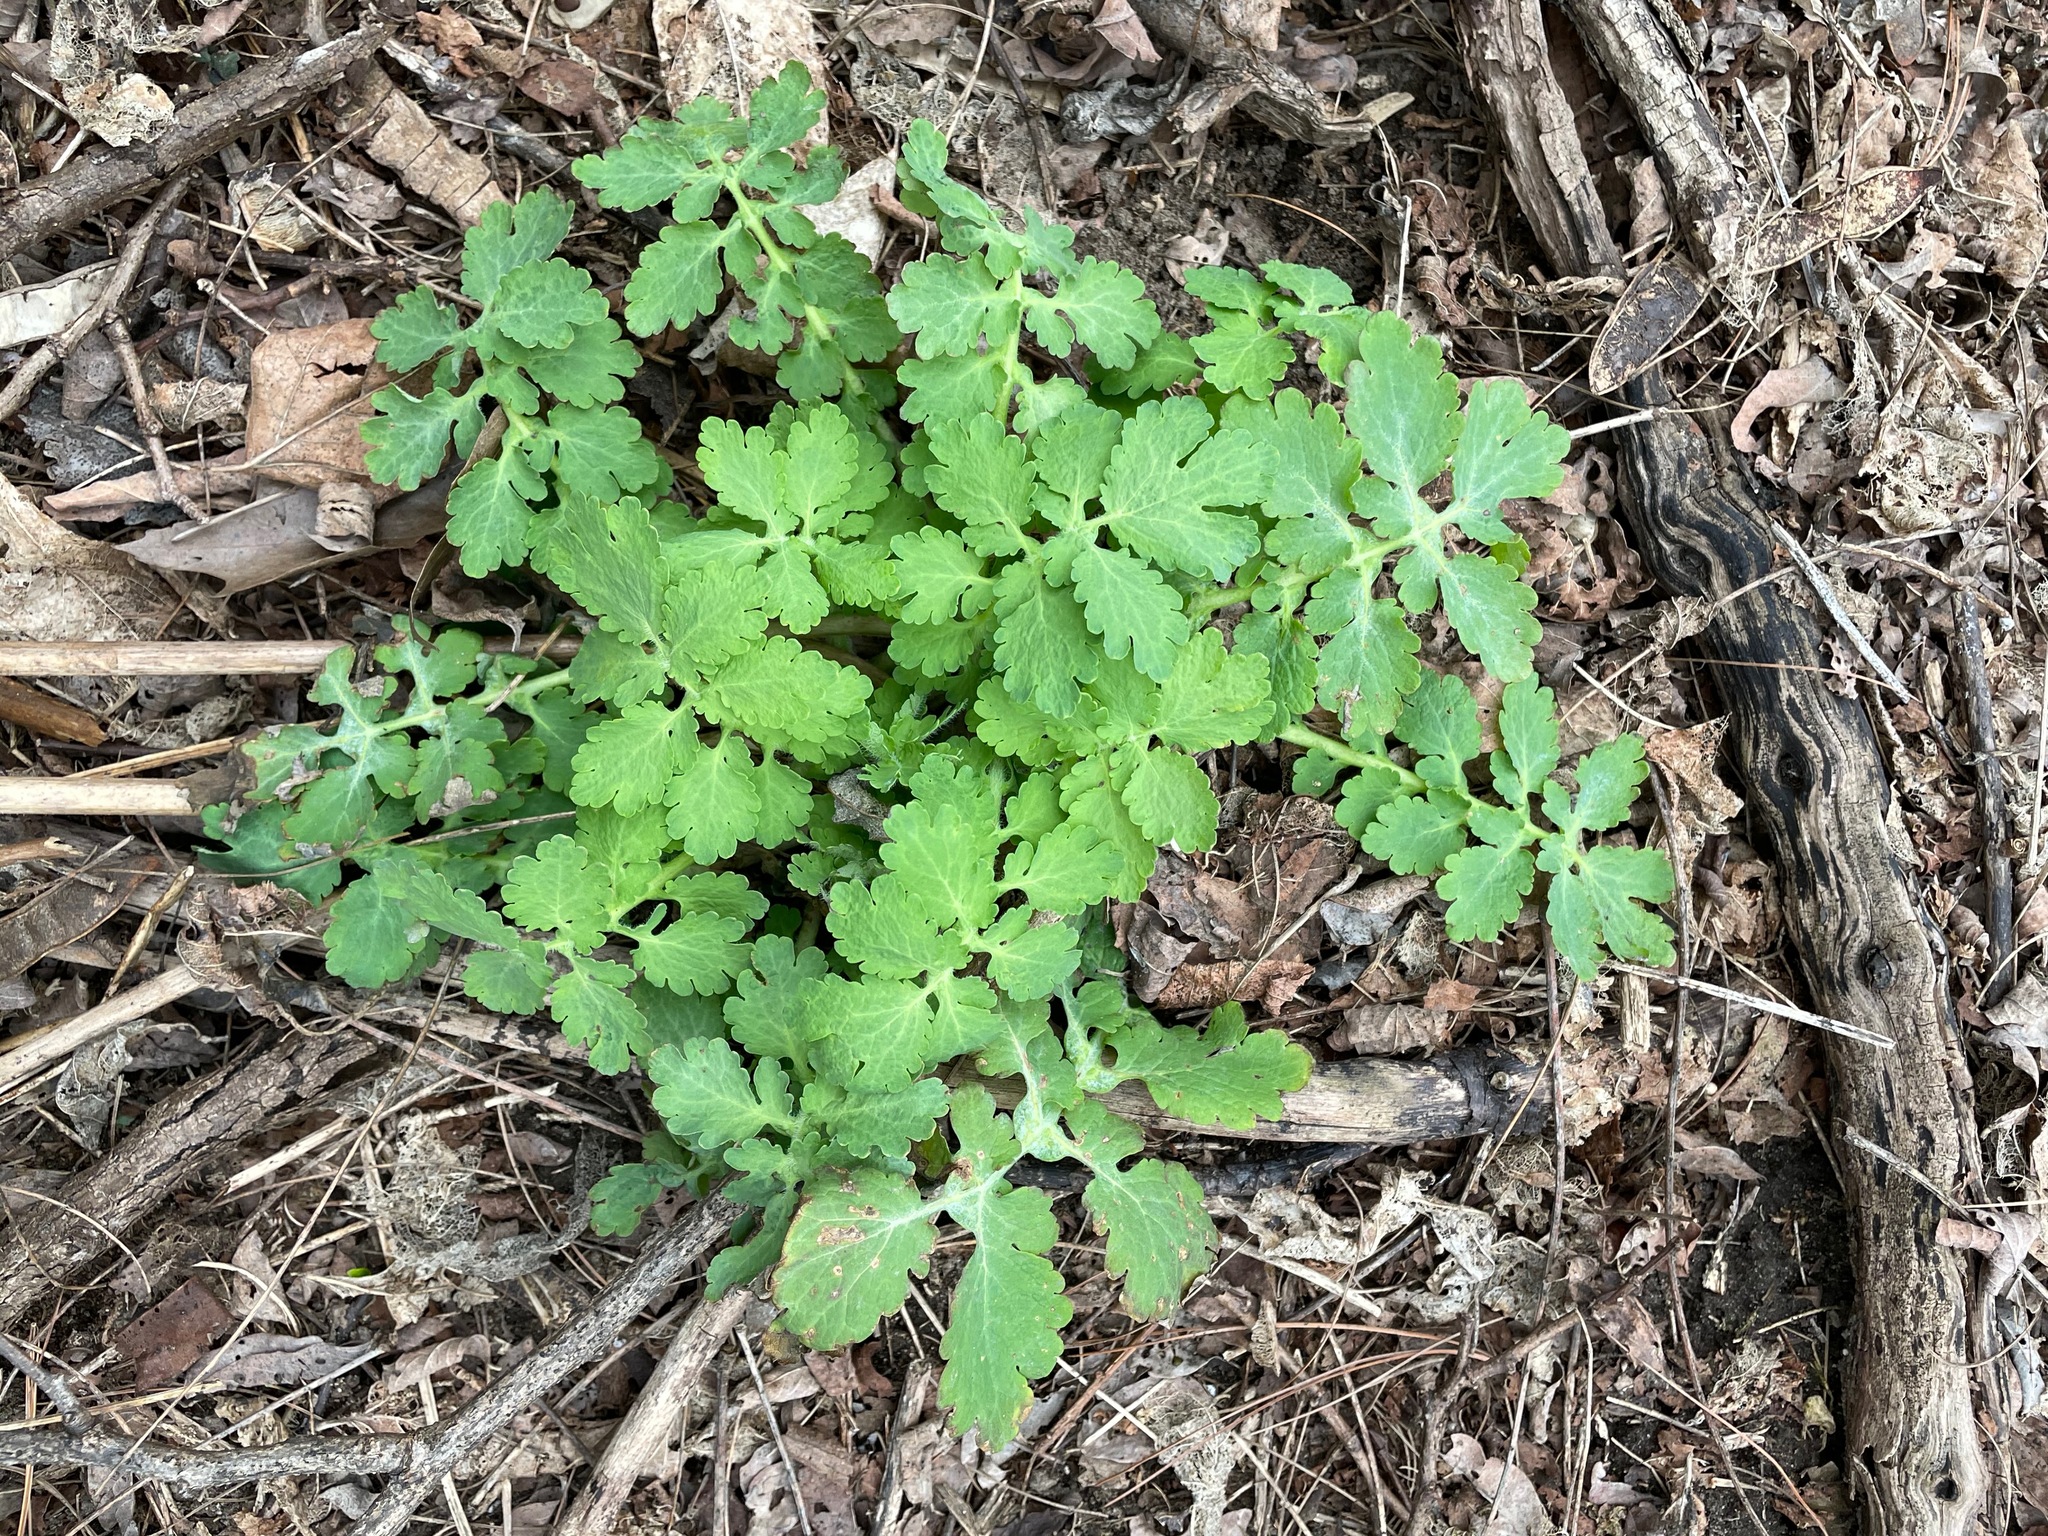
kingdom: Plantae
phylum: Tracheophyta
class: Magnoliopsida
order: Ranunculales
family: Papaveraceae
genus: Chelidonium
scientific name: Chelidonium majus
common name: Greater celandine
